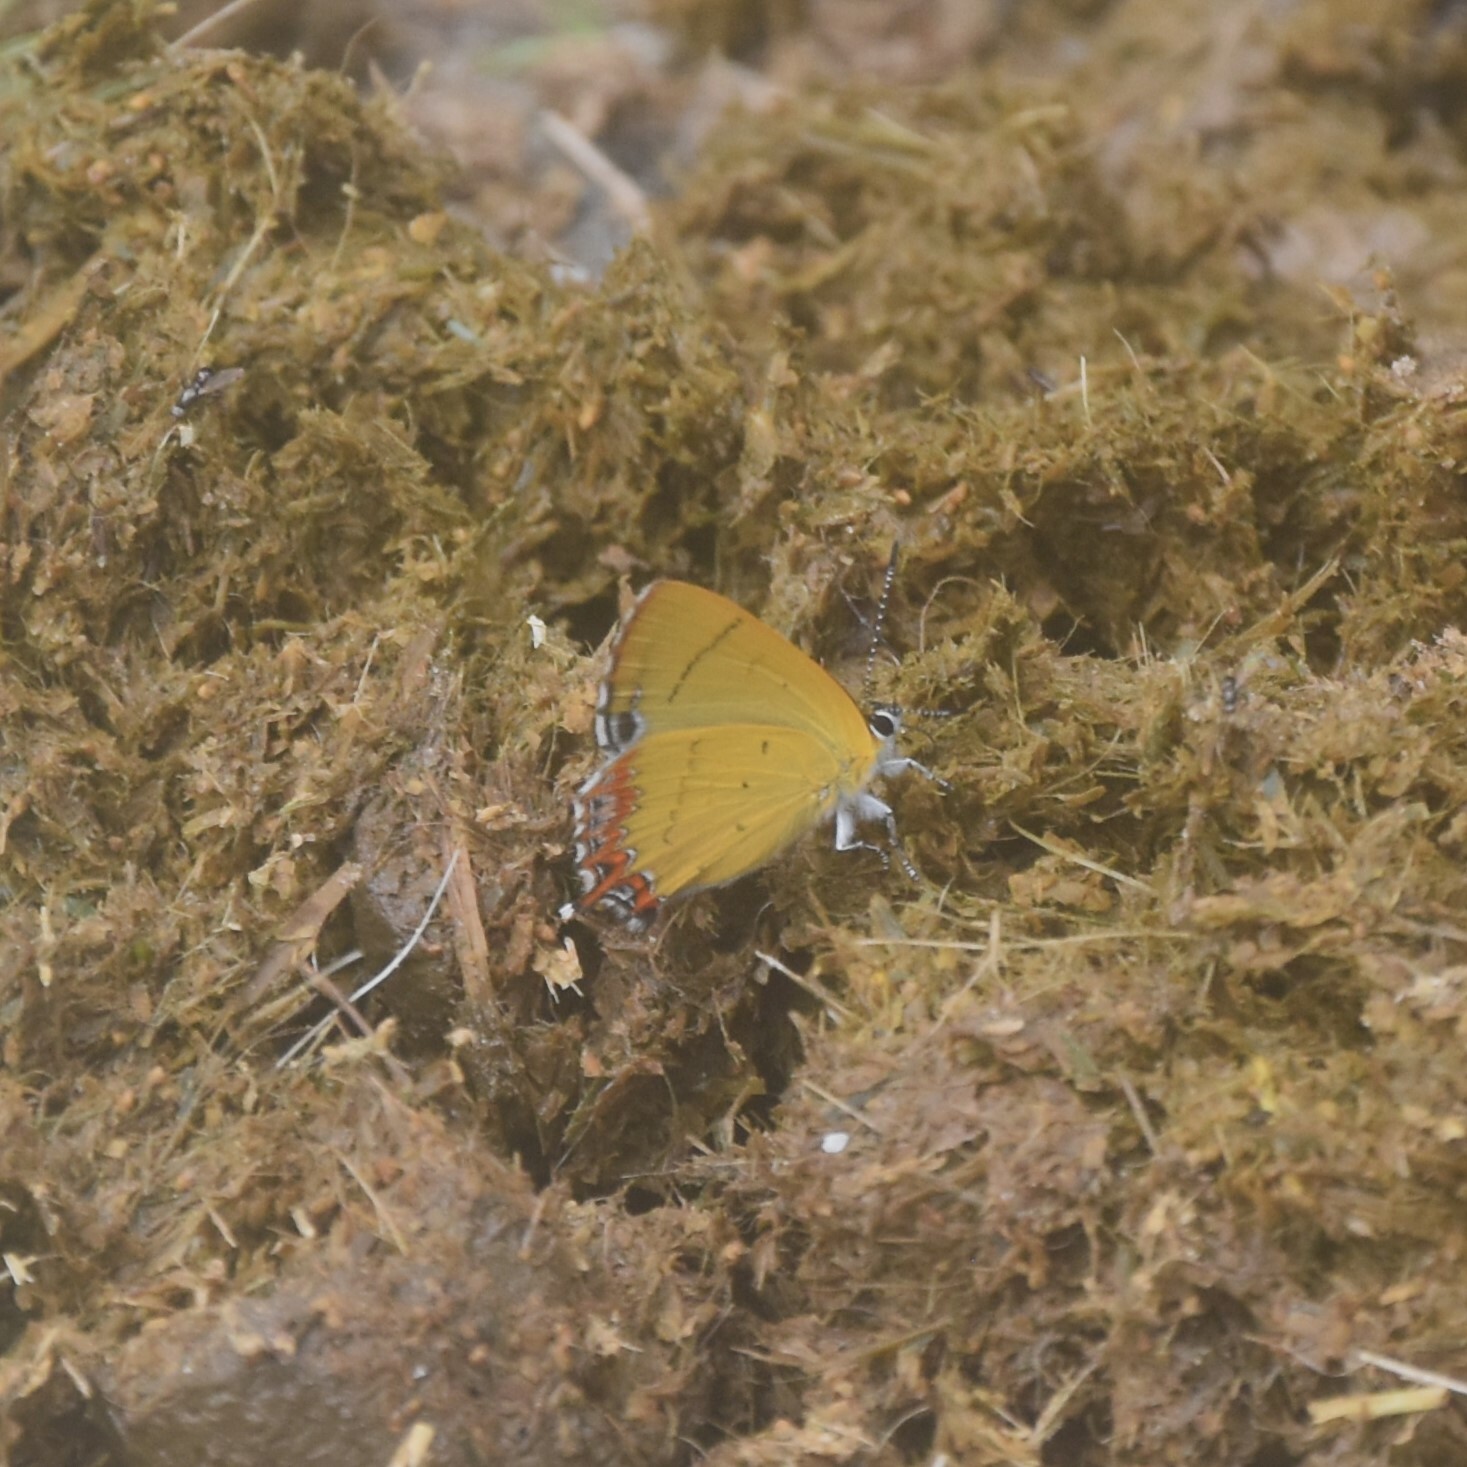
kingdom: Animalia
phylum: Arthropoda
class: Insecta
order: Lepidoptera
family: Lycaenidae
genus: Heliophorus
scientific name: Heliophorus
